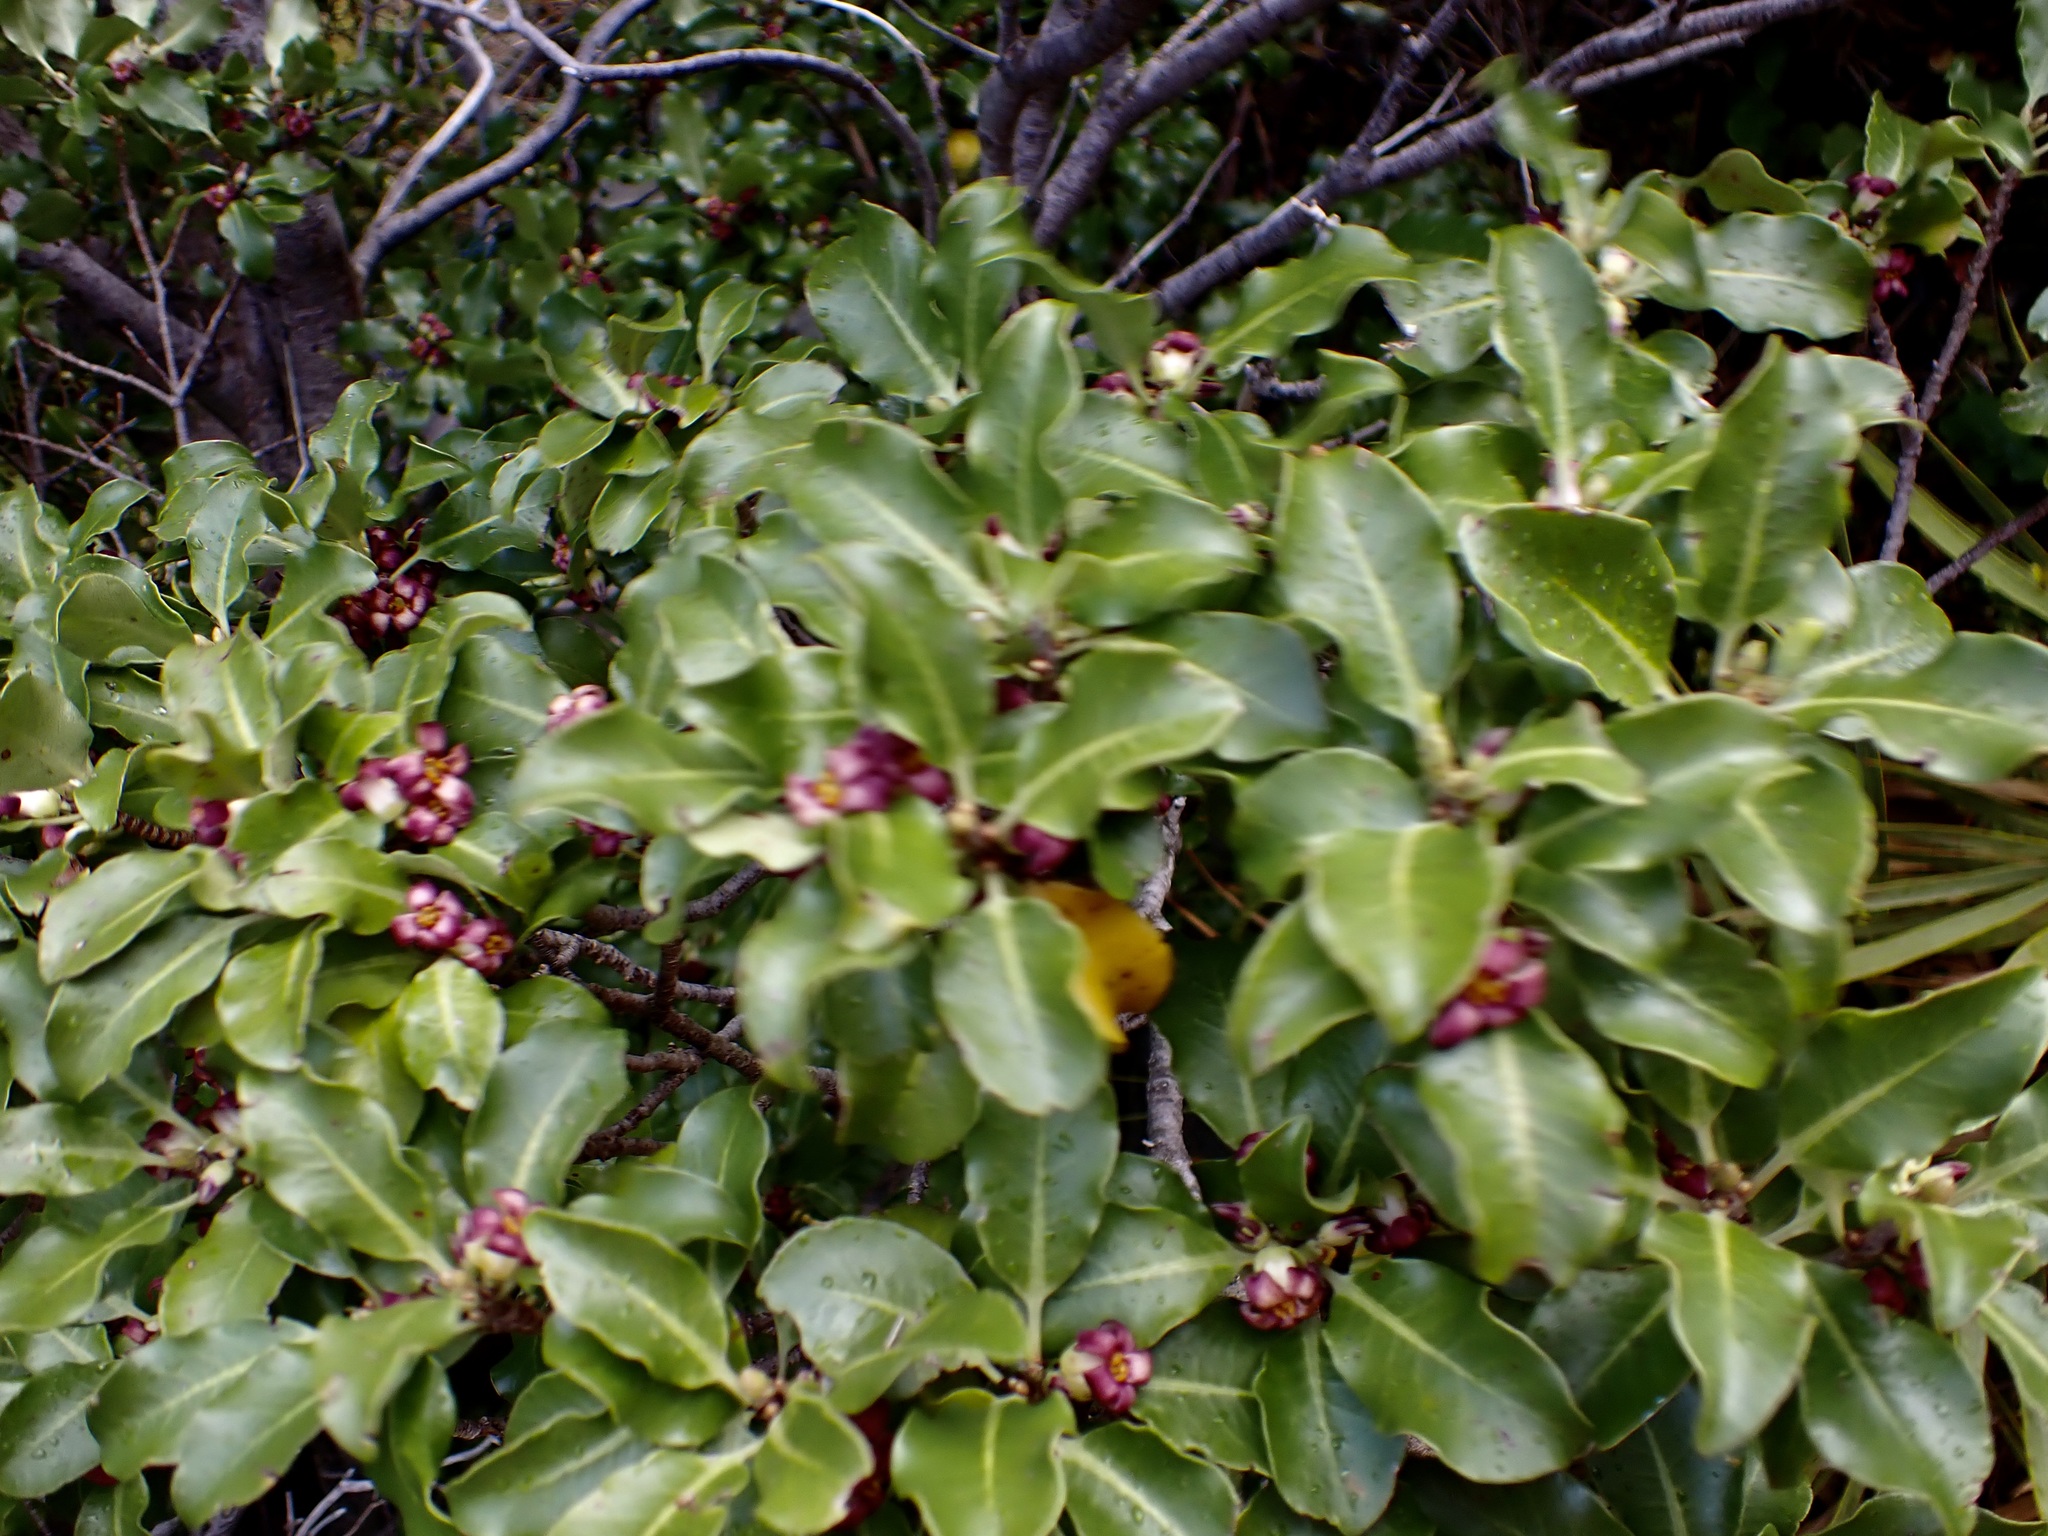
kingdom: Plantae
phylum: Tracheophyta
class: Magnoliopsida
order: Apiales
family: Pittosporaceae
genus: Pittosporum
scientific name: Pittosporum tenuifolium
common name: Kohuhu
